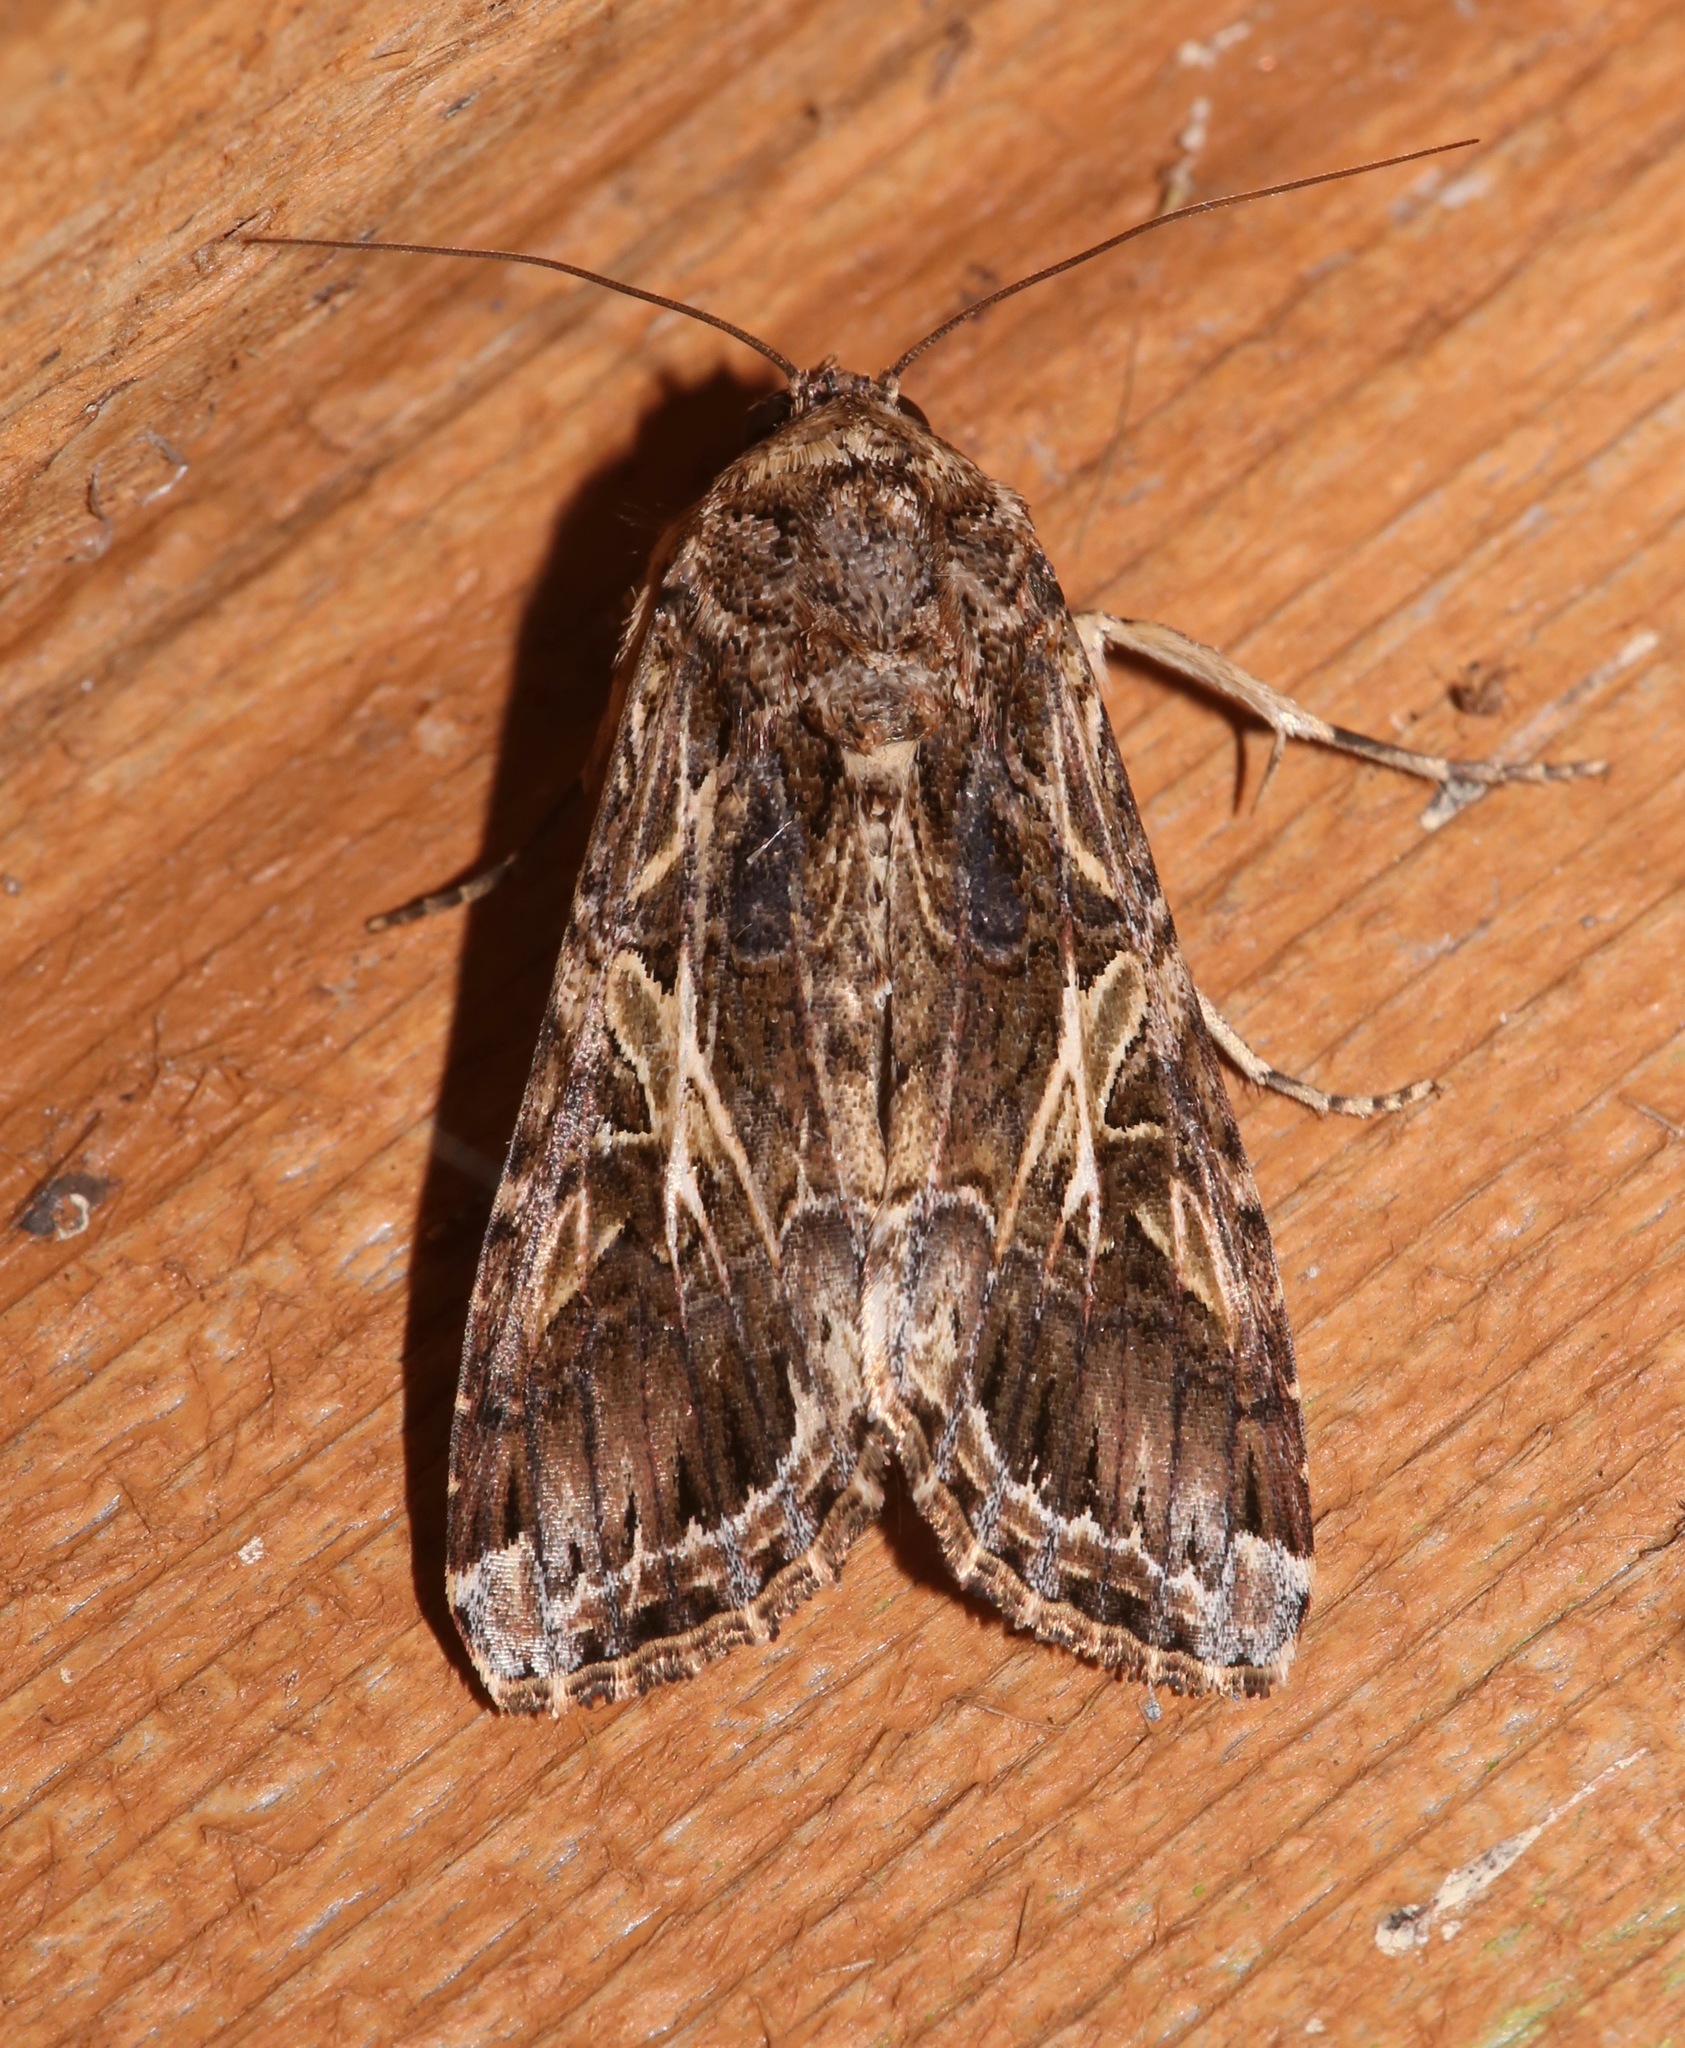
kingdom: Animalia
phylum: Arthropoda
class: Insecta
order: Lepidoptera
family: Noctuidae
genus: Spodoptera
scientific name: Spodoptera ornithogalli
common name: Yellow-striped armyworm
